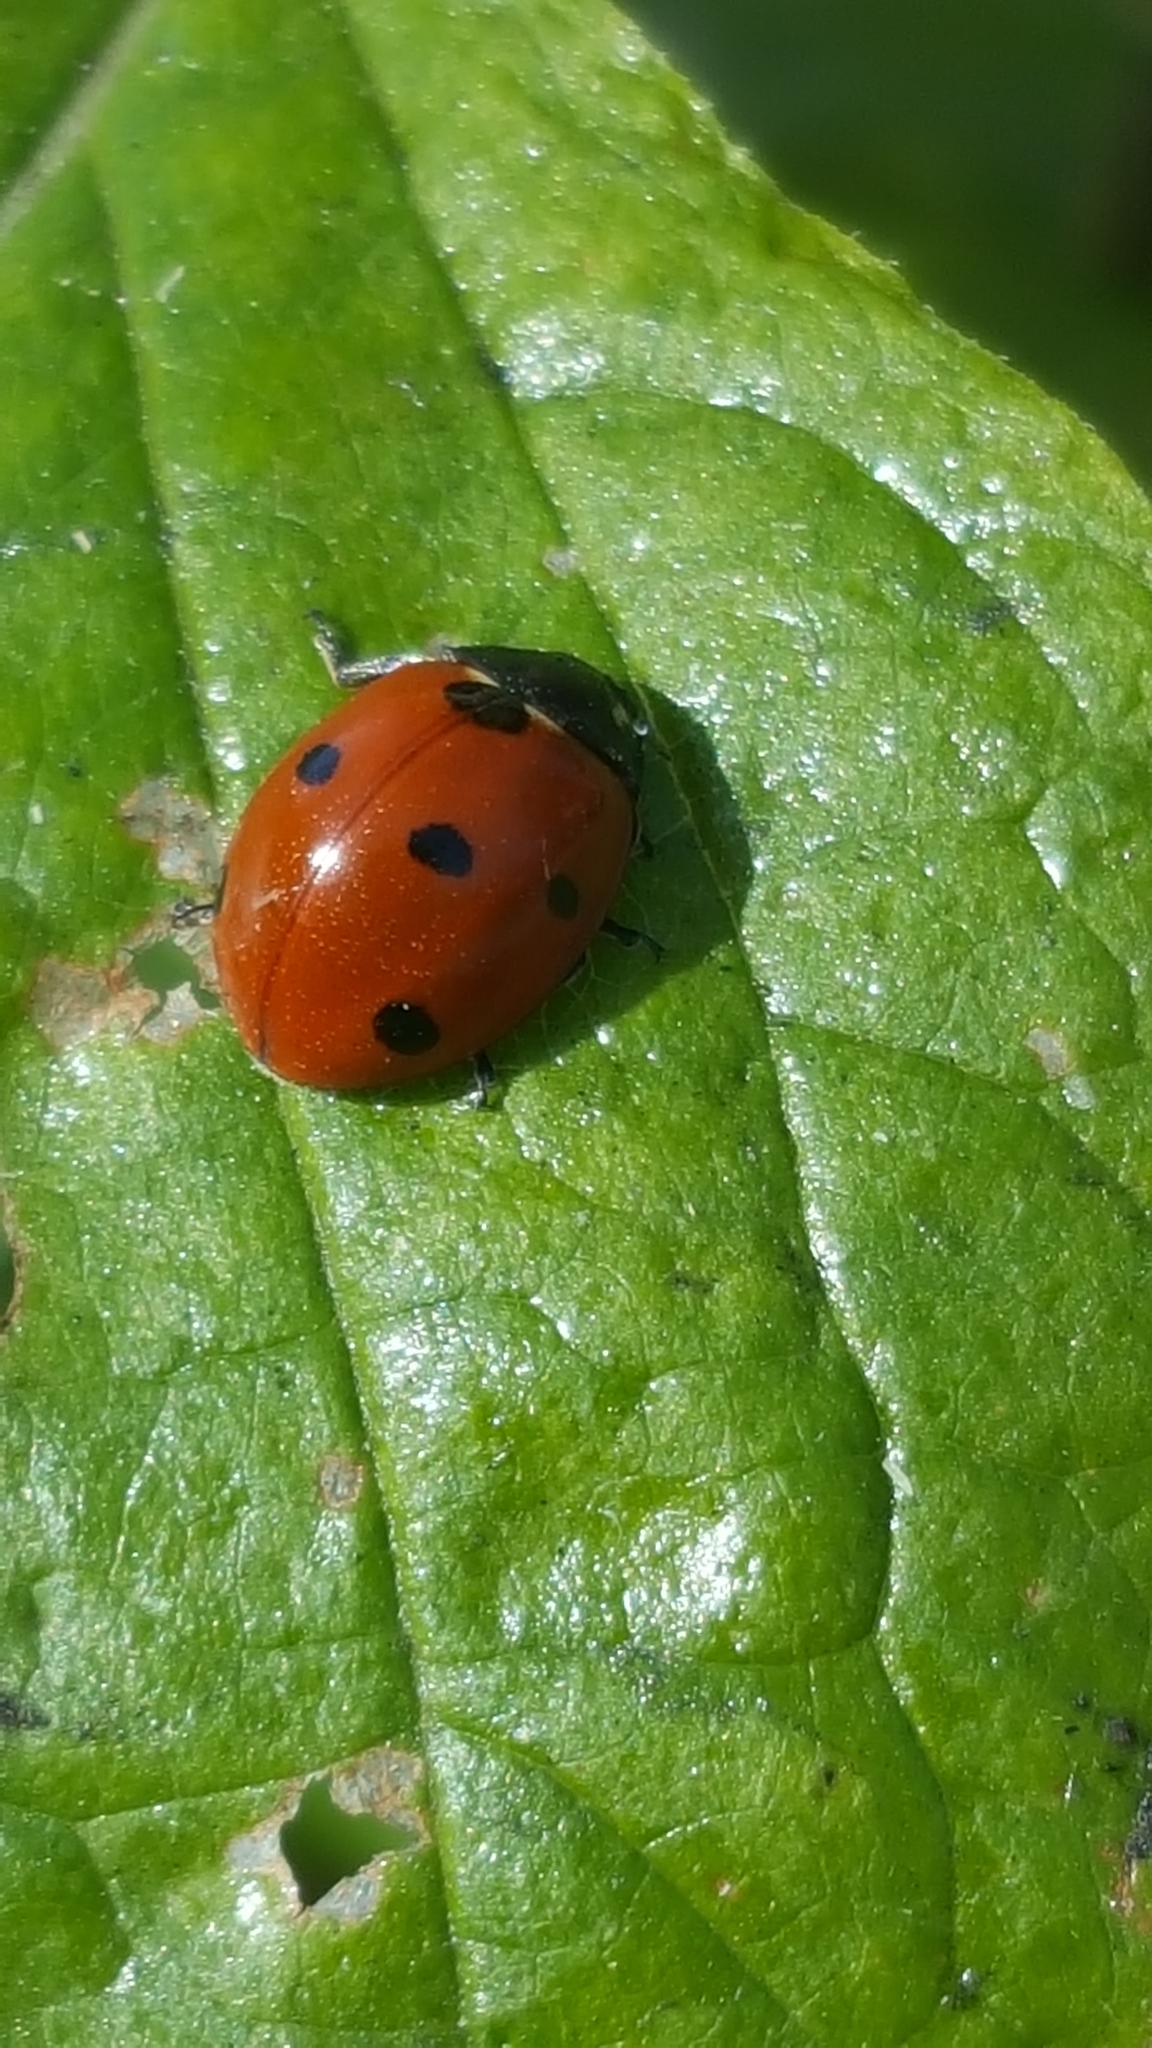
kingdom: Animalia
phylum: Arthropoda
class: Insecta
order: Coleoptera
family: Coccinellidae
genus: Coccinella
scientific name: Coccinella septempunctata
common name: Sevenspotted lady beetle
